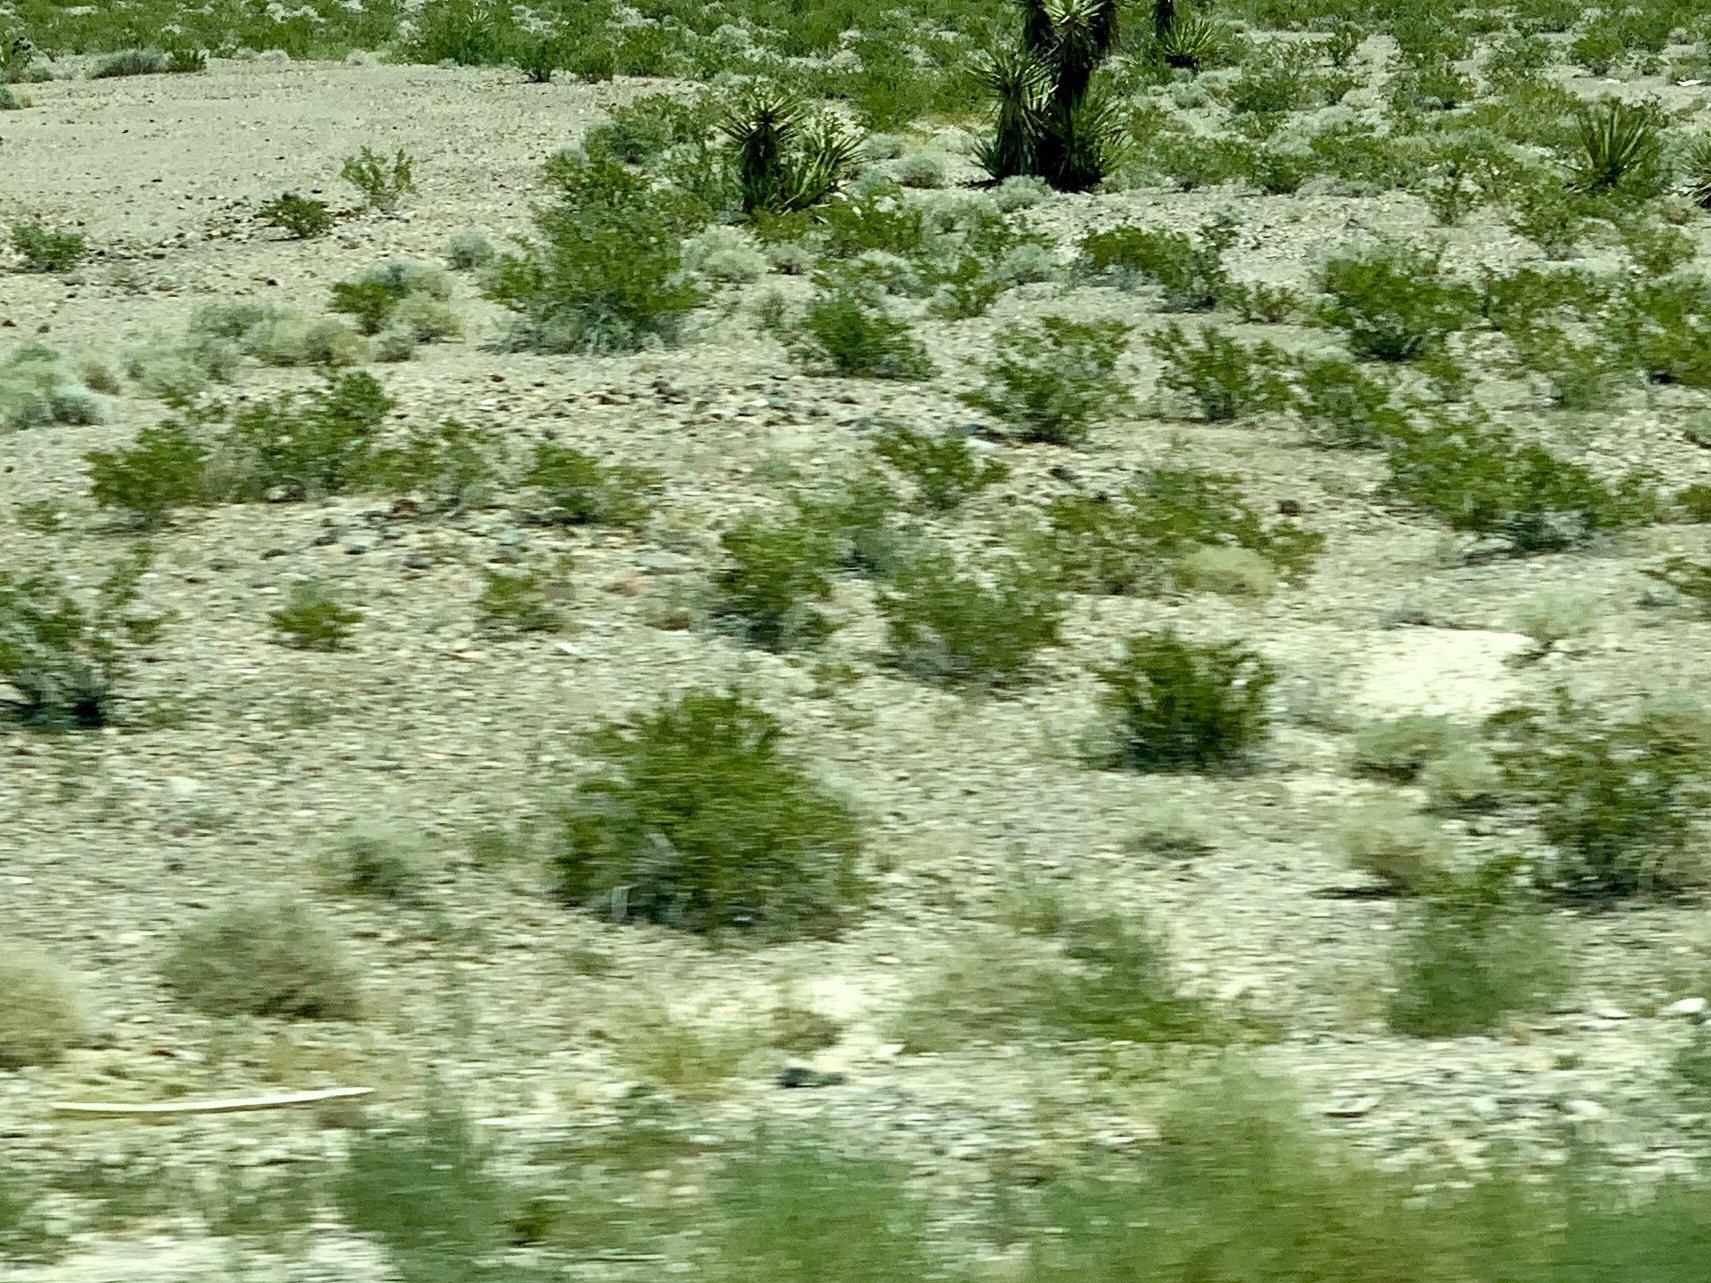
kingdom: Plantae
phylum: Tracheophyta
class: Magnoliopsida
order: Zygophyllales
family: Zygophyllaceae
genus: Larrea
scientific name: Larrea tridentata
